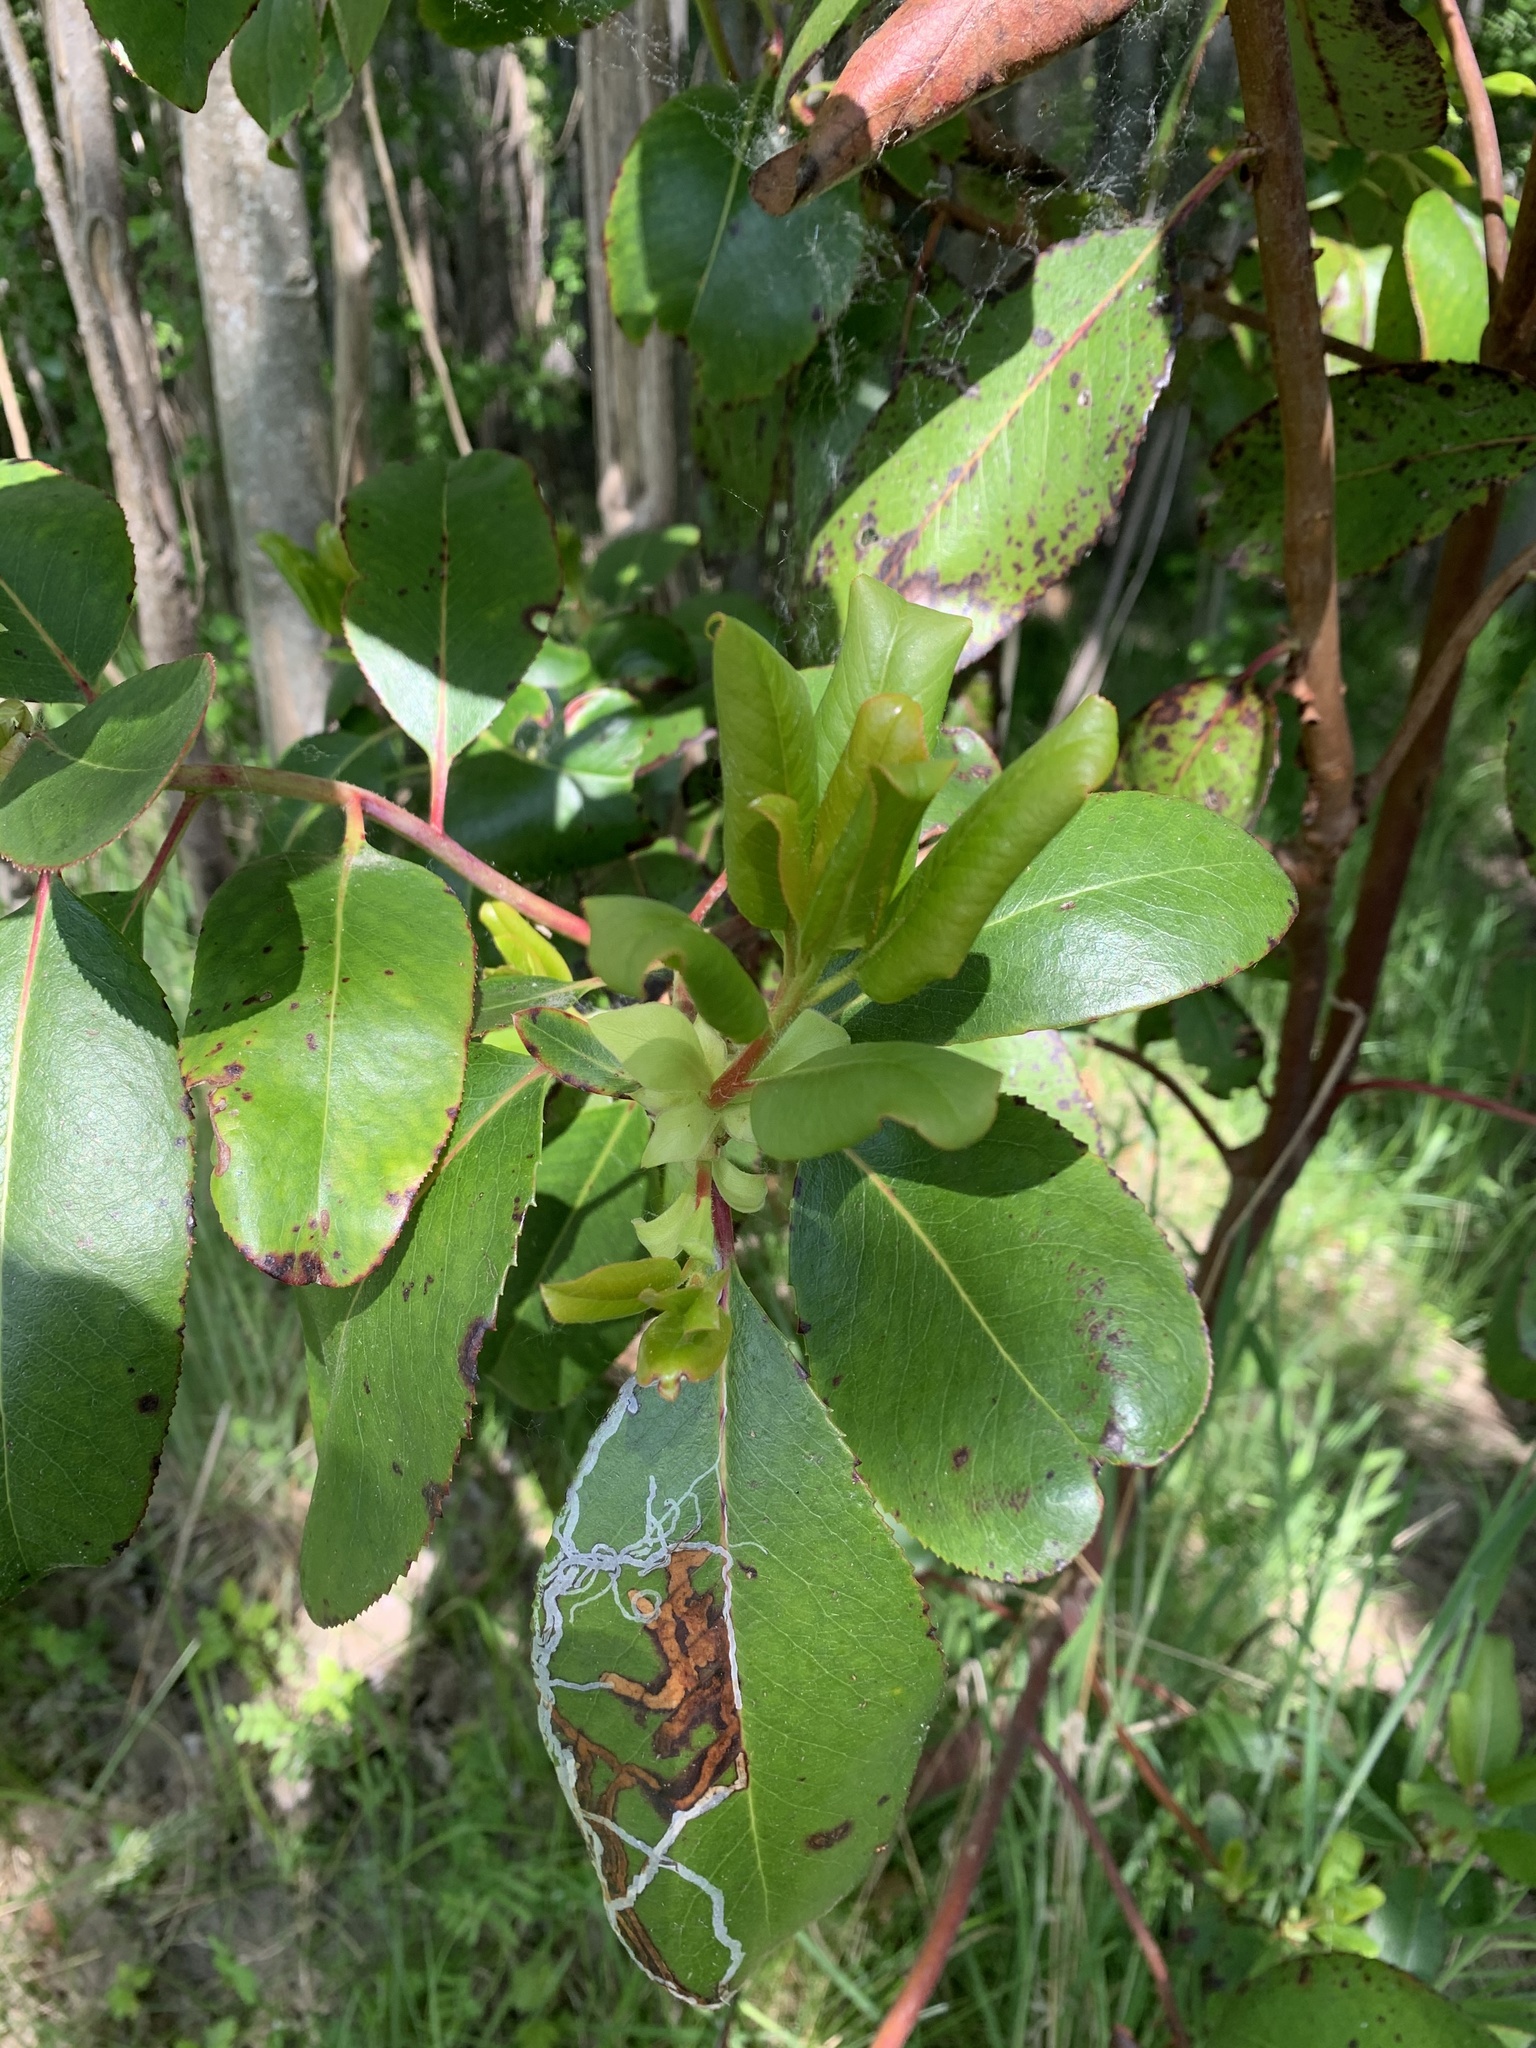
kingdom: Plantae
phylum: Tracheophyta
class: Magnoliopsida
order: Ericales
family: Ericaceae
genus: Arbutus
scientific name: Arbutus menziesii
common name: Pacific madrone
